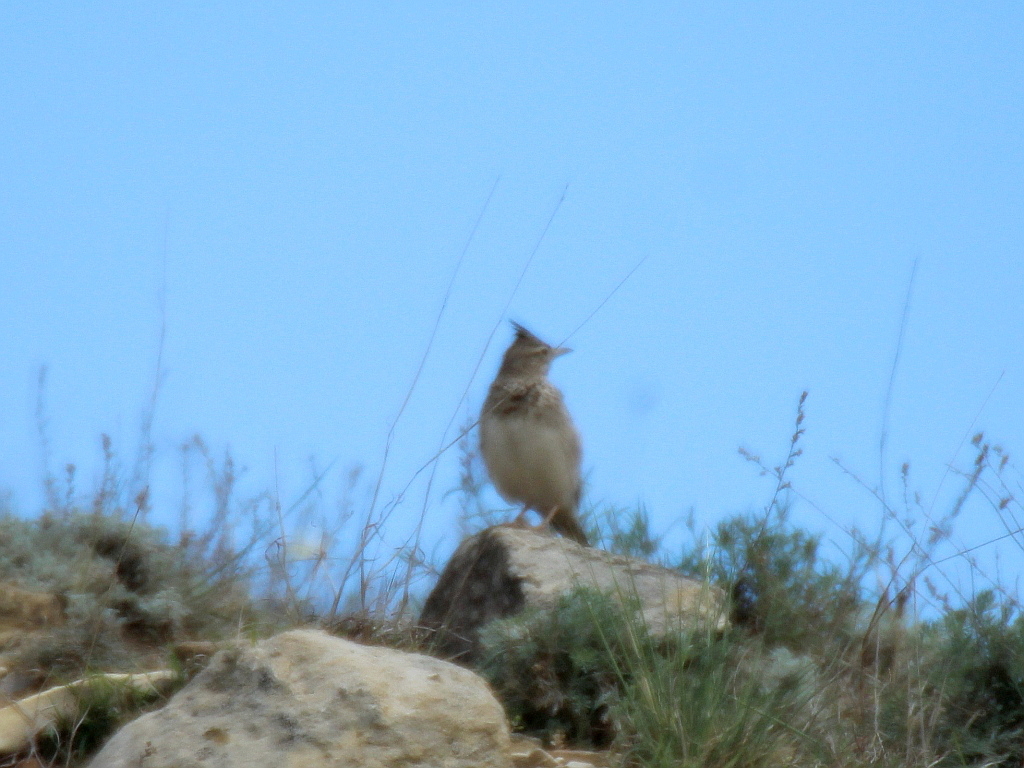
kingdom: Animalia
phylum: Chordata
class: Aves
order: Passeriformes
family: Alaudidae
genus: Galerida
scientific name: Galerida cristata
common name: Crested lark
